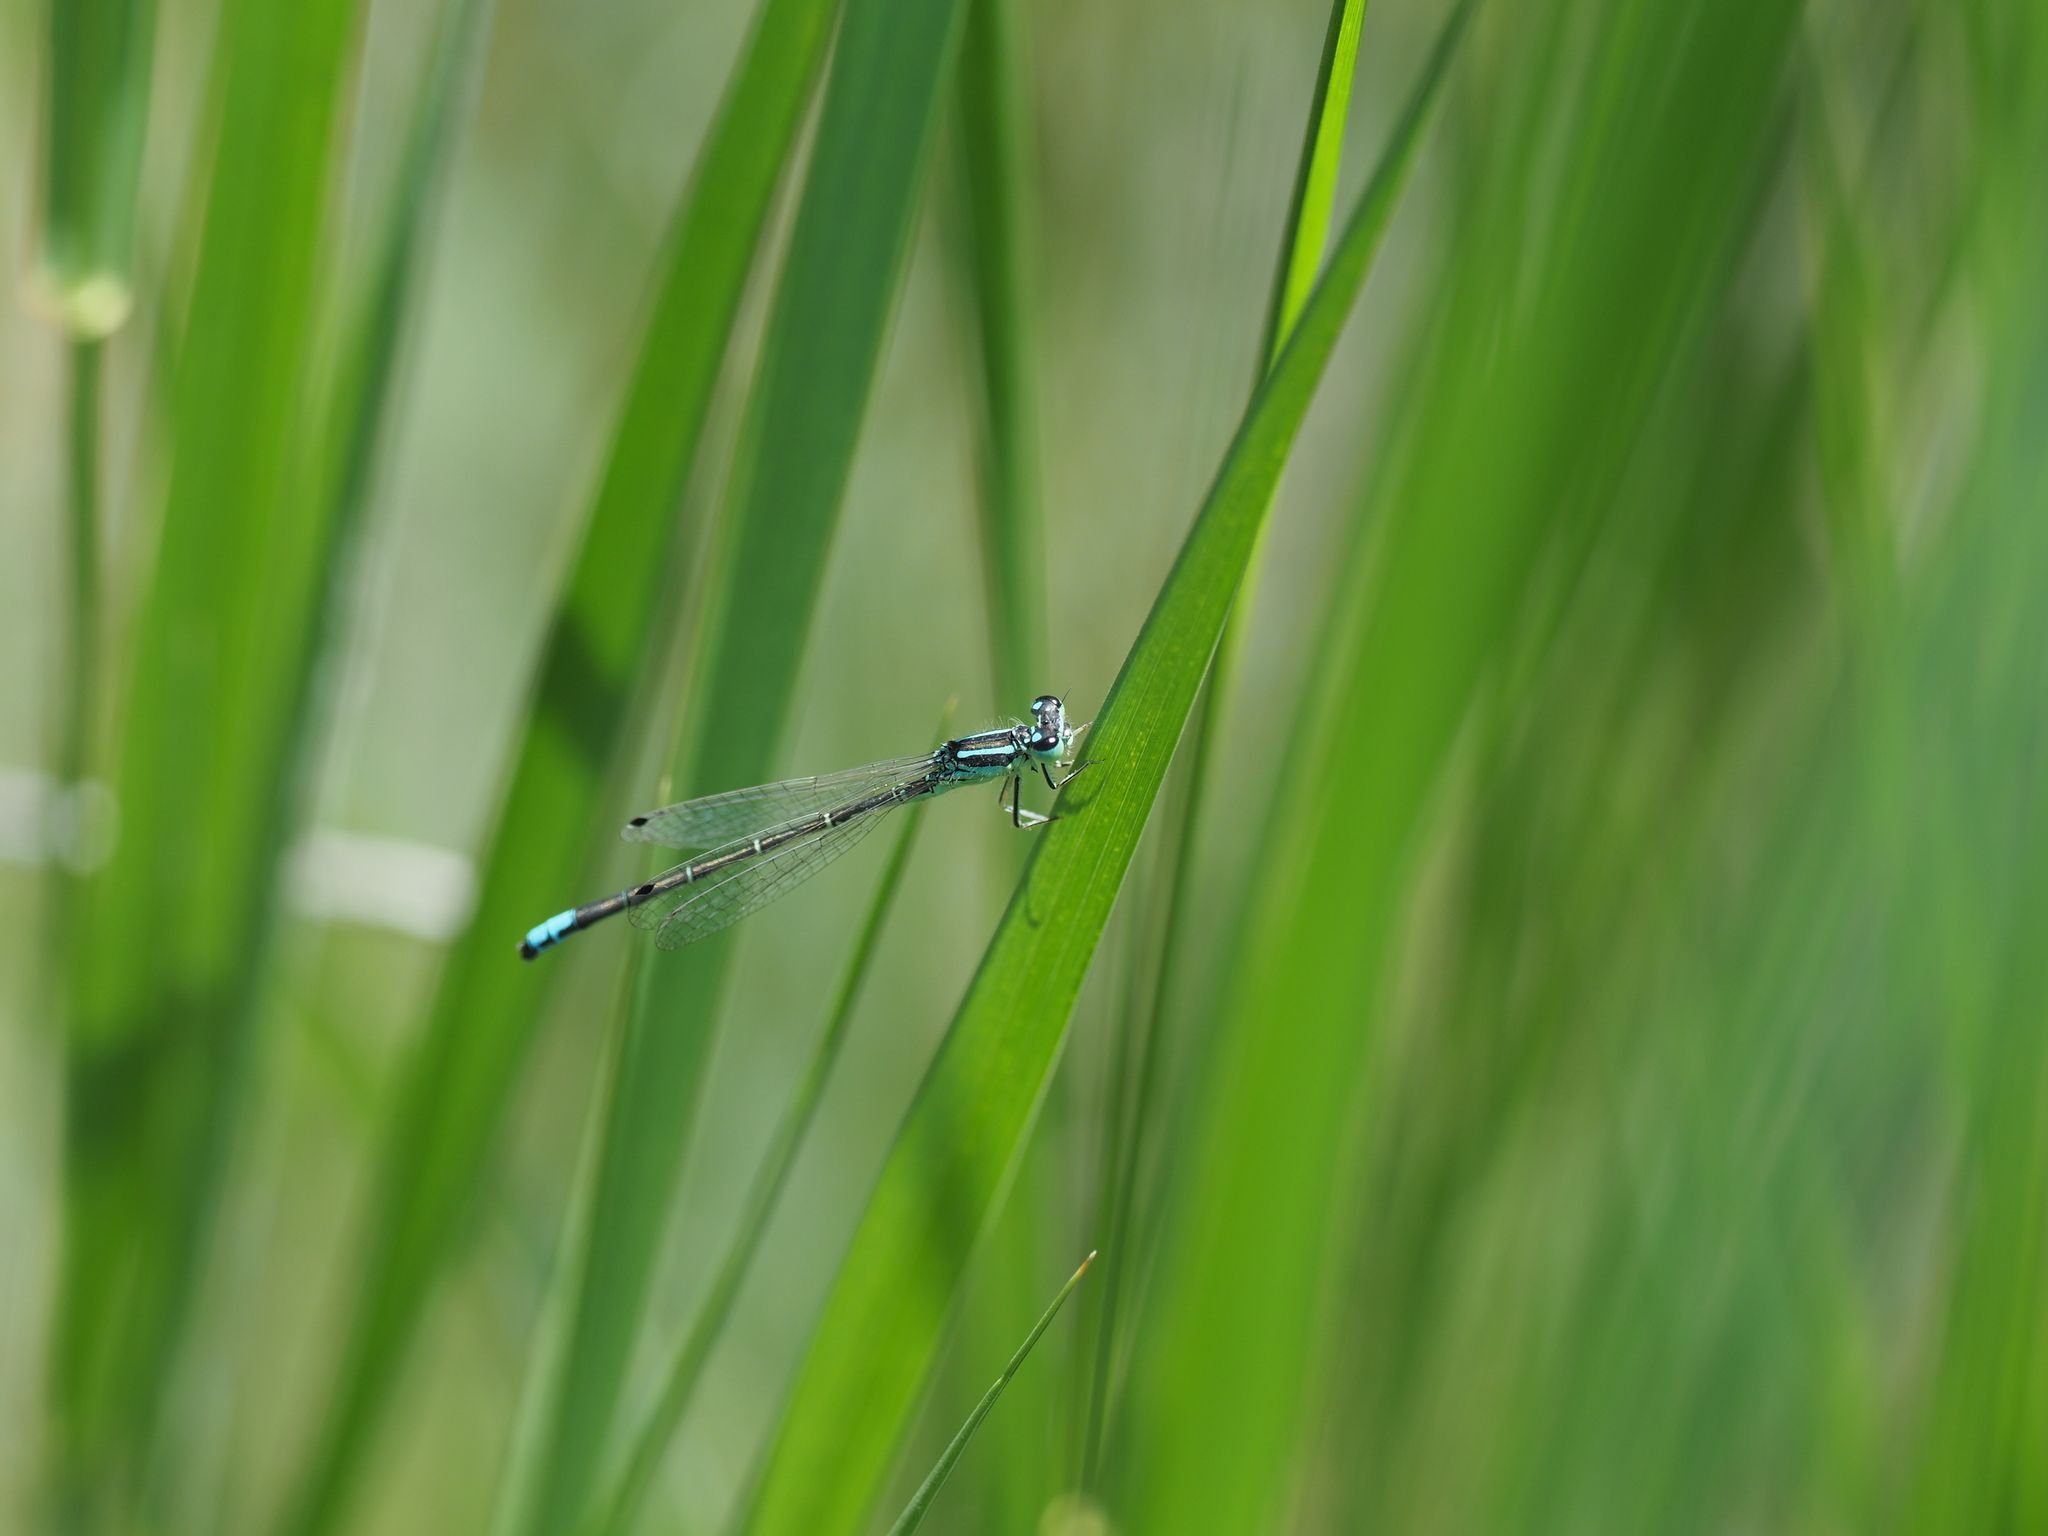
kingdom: Animalia
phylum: Arthropoda
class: Insecta
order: Odonata
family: Coenagrionidae
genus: Ischnura
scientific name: Ischnura perparva
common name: Western forktail
